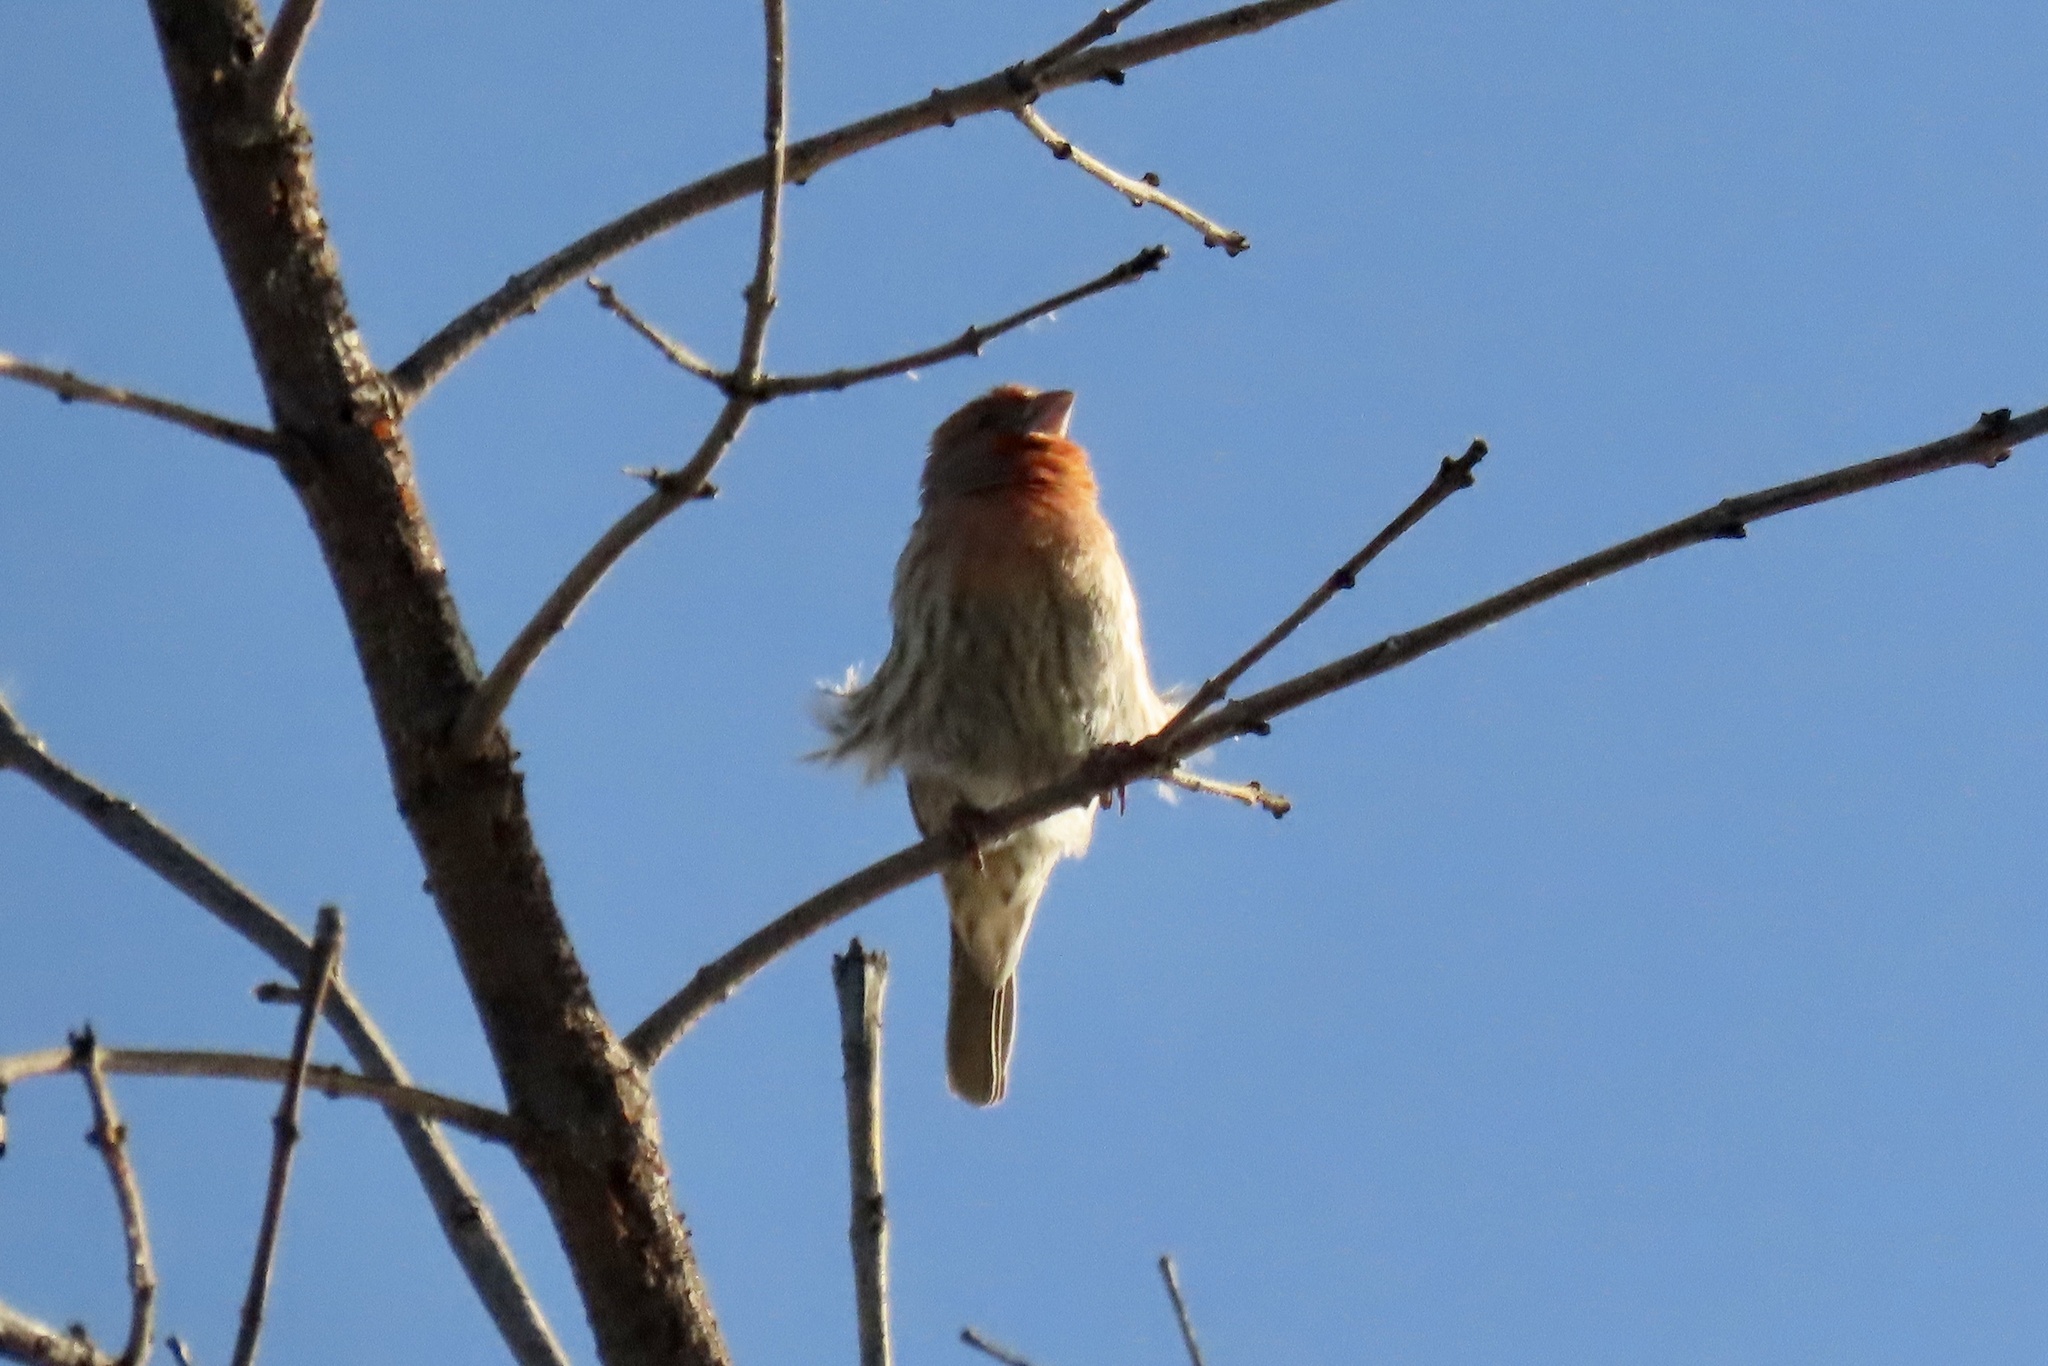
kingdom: Animalia
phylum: Chordata
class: Aves
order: Passeriformes
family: Fringillidae
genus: Haemorhous
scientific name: Haemorhous mexicanus
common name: House finch
